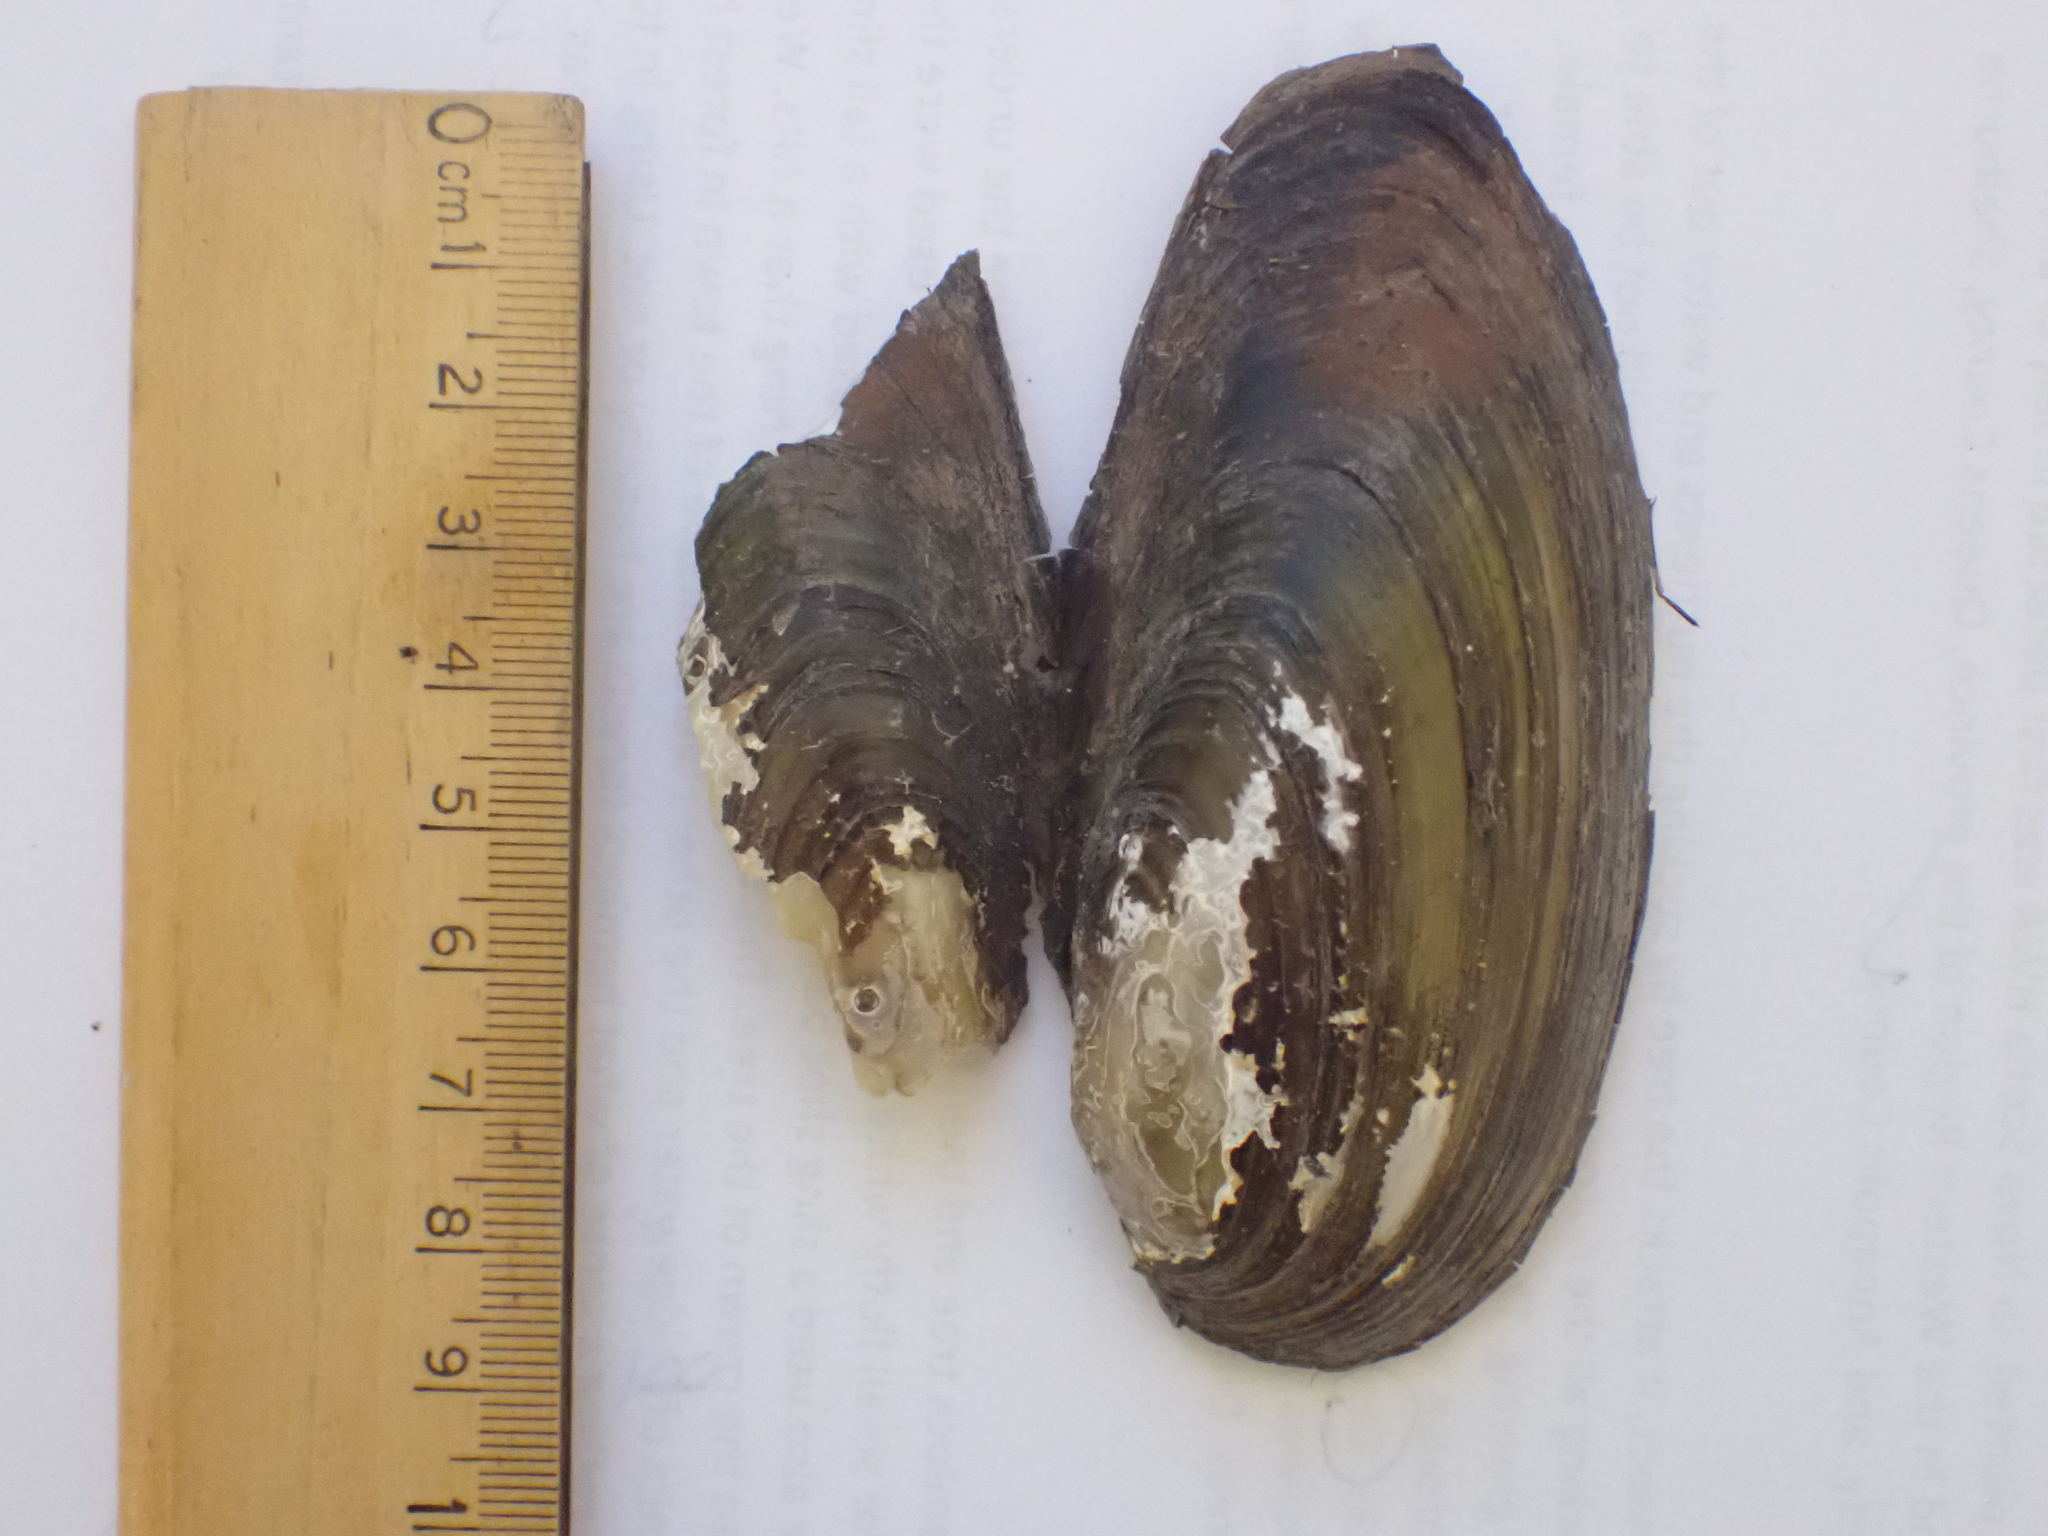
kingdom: Animalia
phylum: Mollusca
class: Bivalvia
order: Unionida
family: Unionidae
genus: Pyganodon
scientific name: Pyganodon cataracta
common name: Eastern floater
